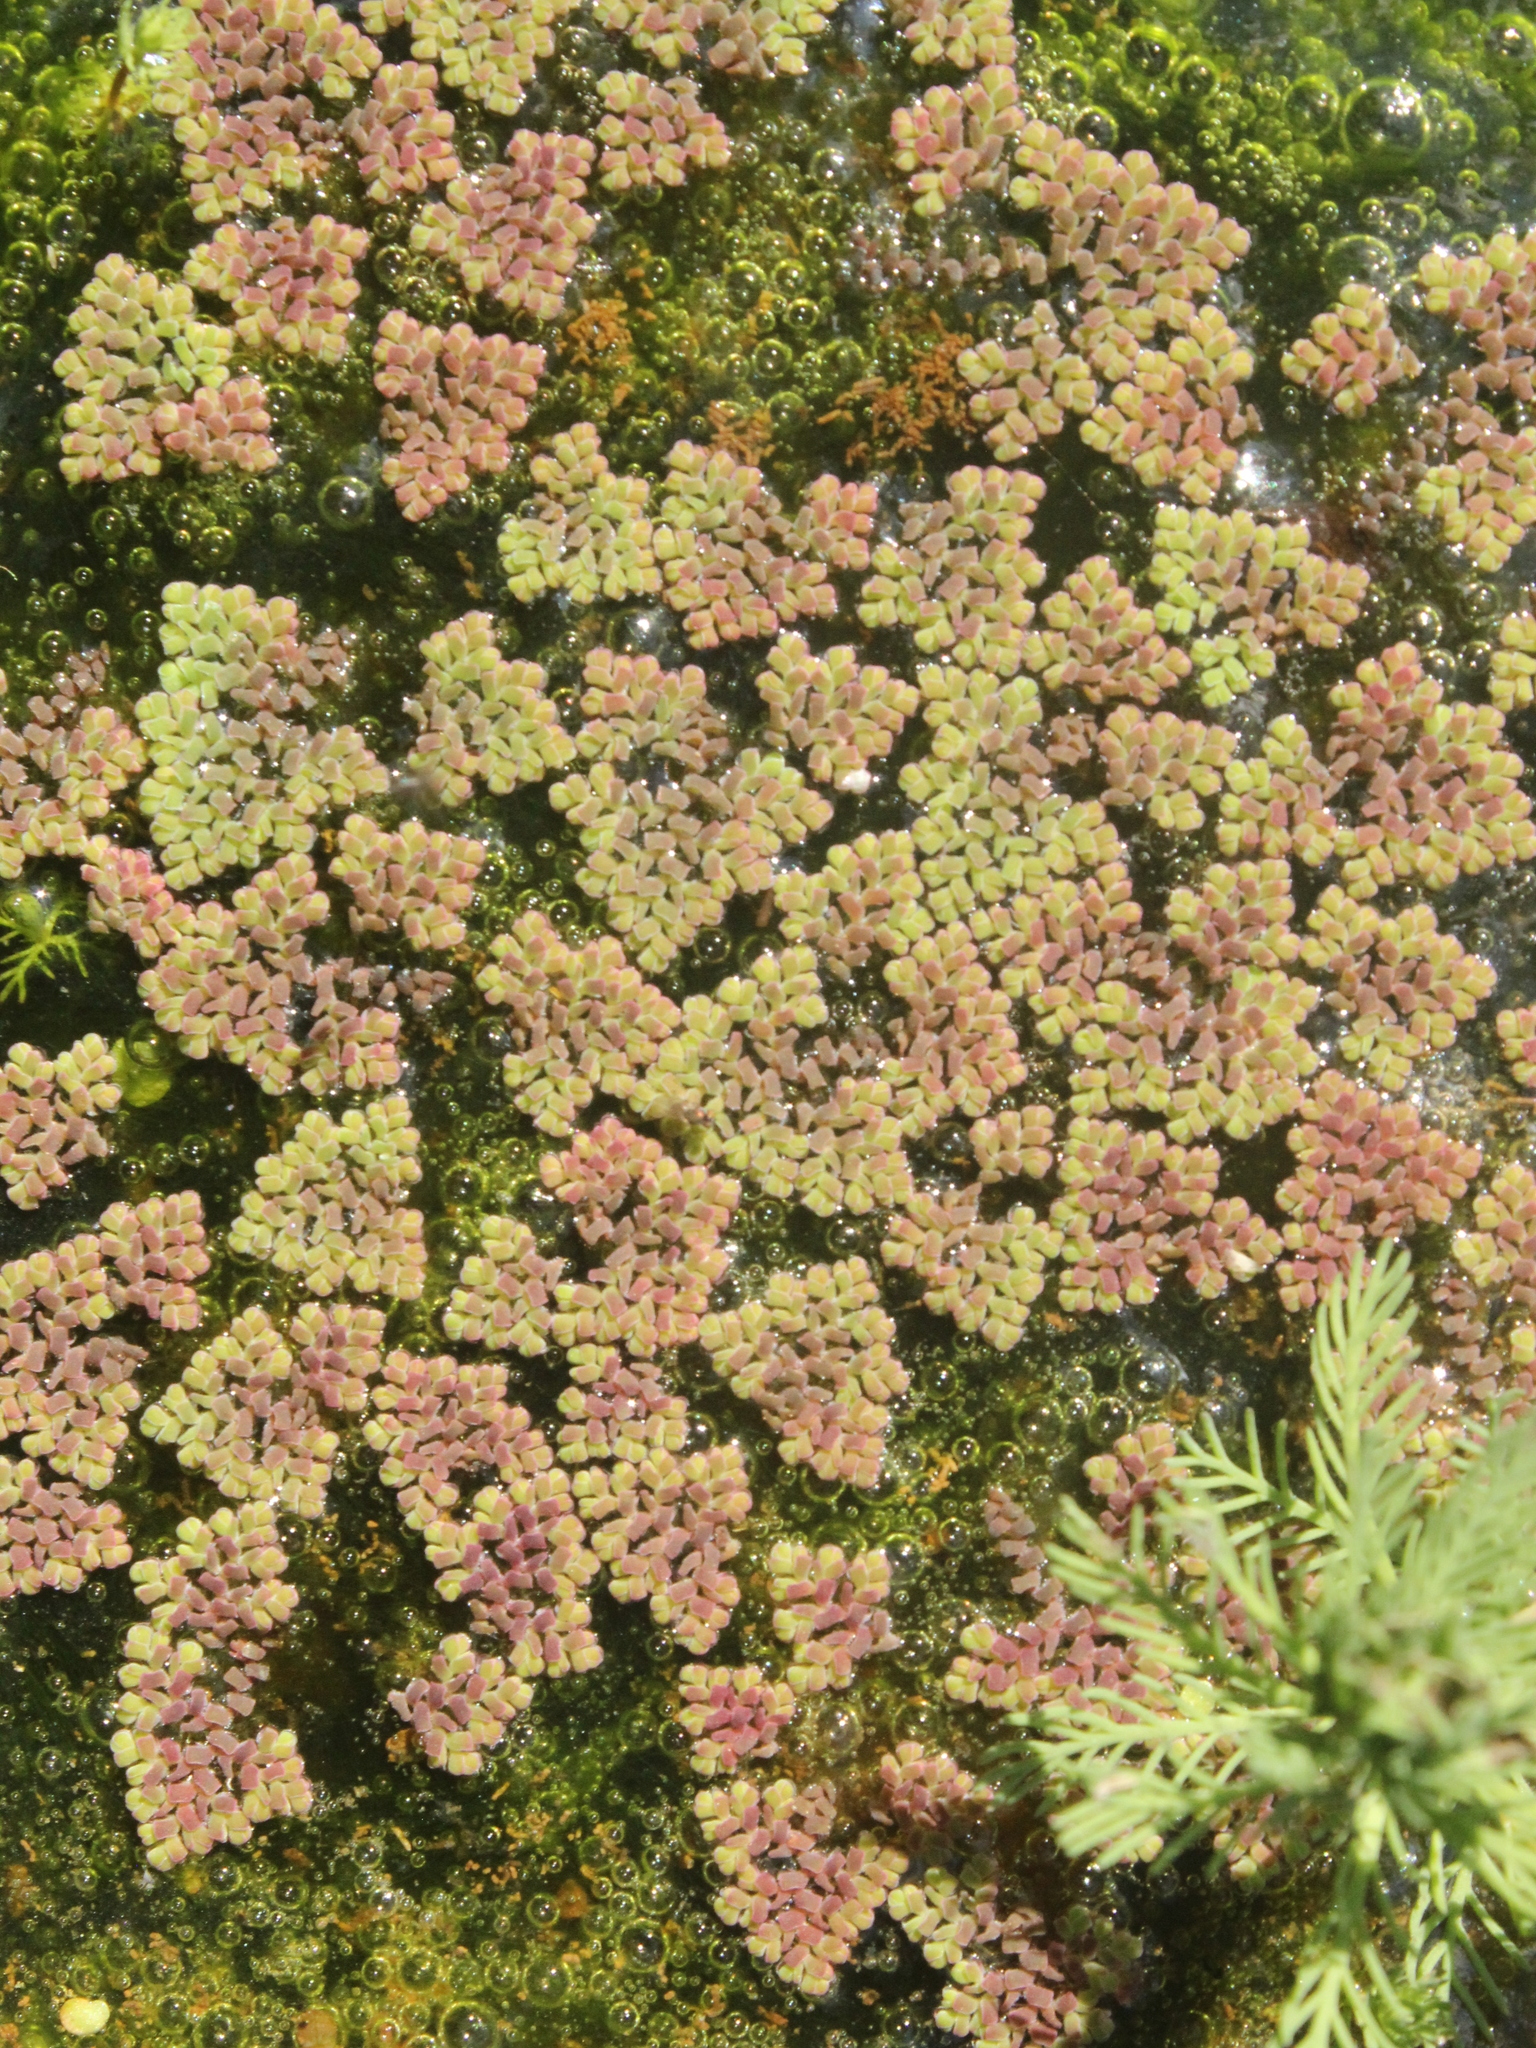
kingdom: Plantae
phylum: Tracheophyta
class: Polypodiopsida
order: Salviniales
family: Salviniaceae
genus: Azolla
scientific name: Azolla pinnata
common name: Ferny azolla
